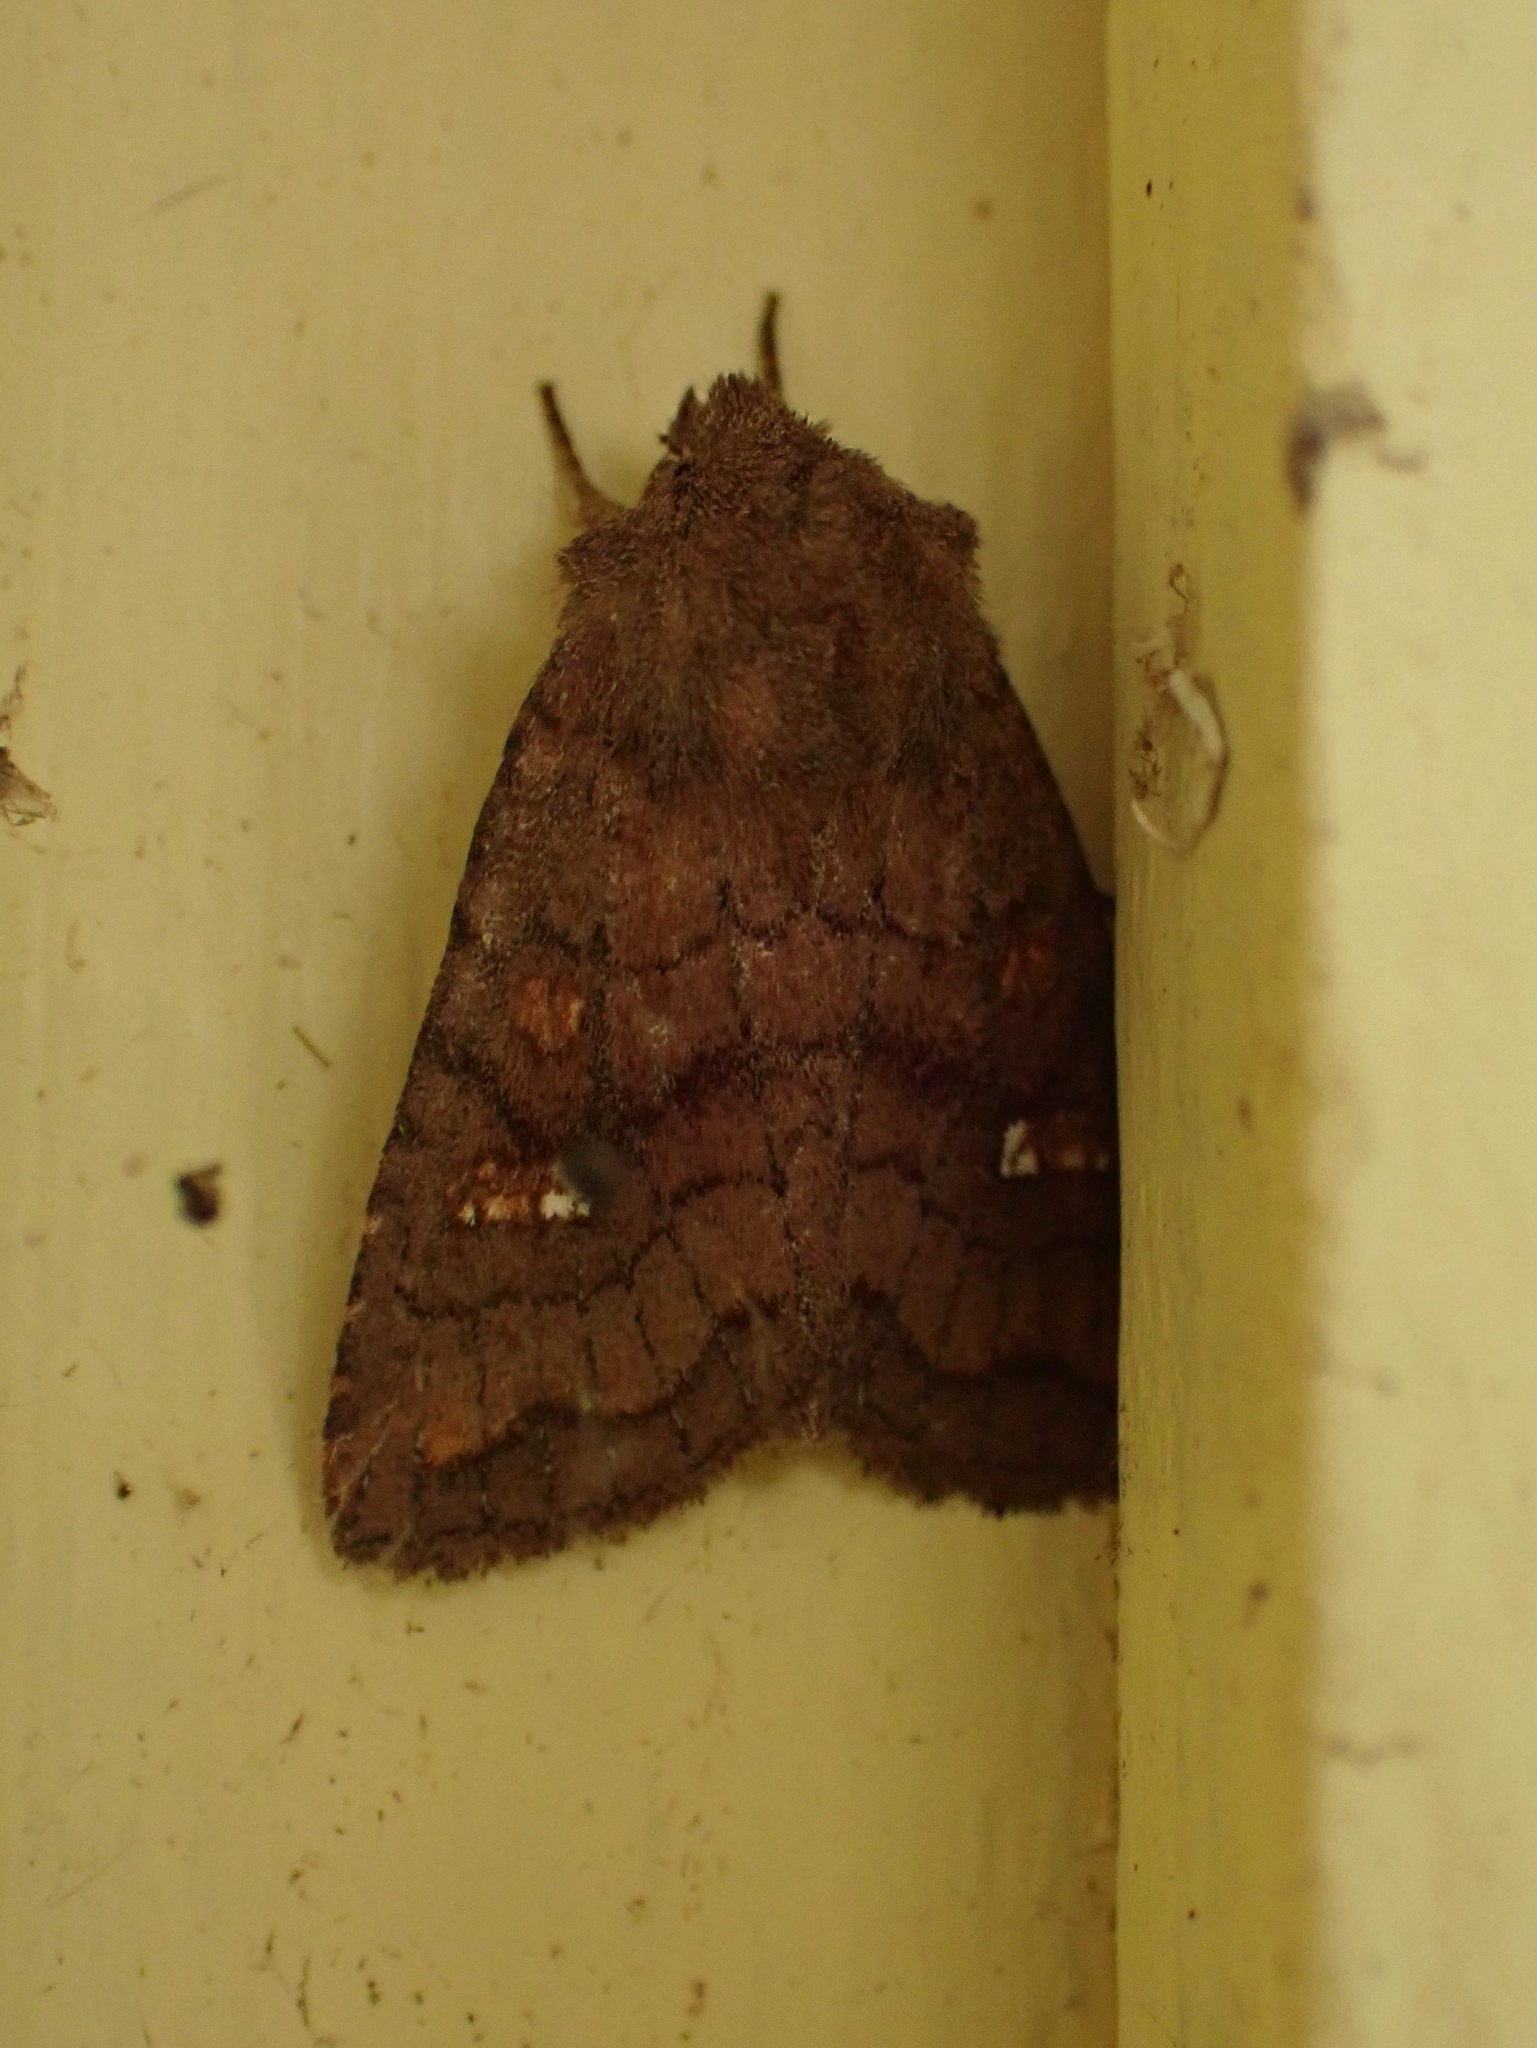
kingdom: Animalia
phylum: Arthropoda
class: Insecta
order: Lepidoptera
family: Noctuidae
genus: Tricholita
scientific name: Tricholita signata
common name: Signate quaker
